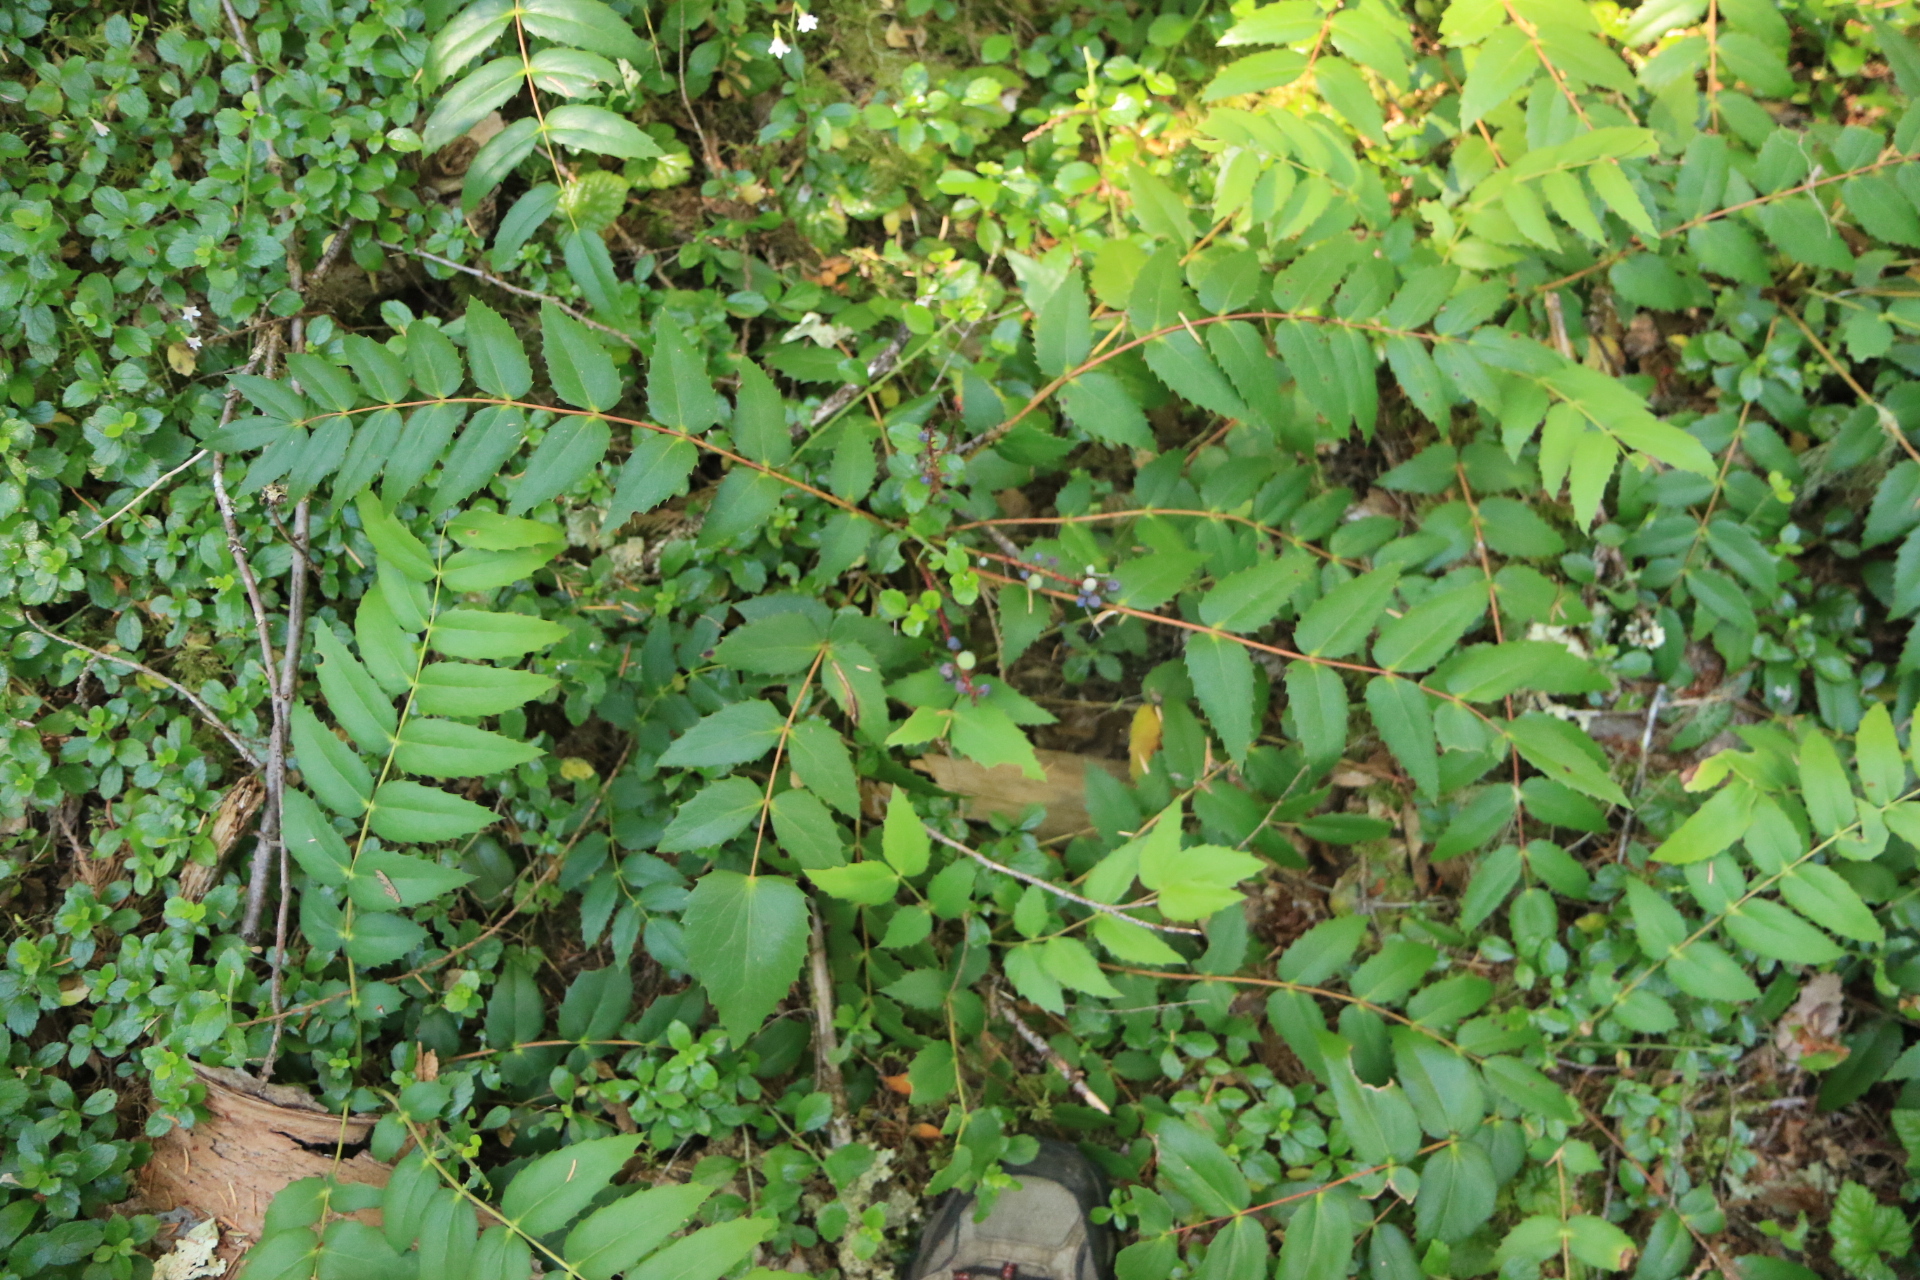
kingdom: Plantae
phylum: Tracheophyta
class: Magnoliopsida
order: Ranunculales
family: Berberidaceae
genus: Mahonia
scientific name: Mahonia nervosa
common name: Cascade oregon-grape
